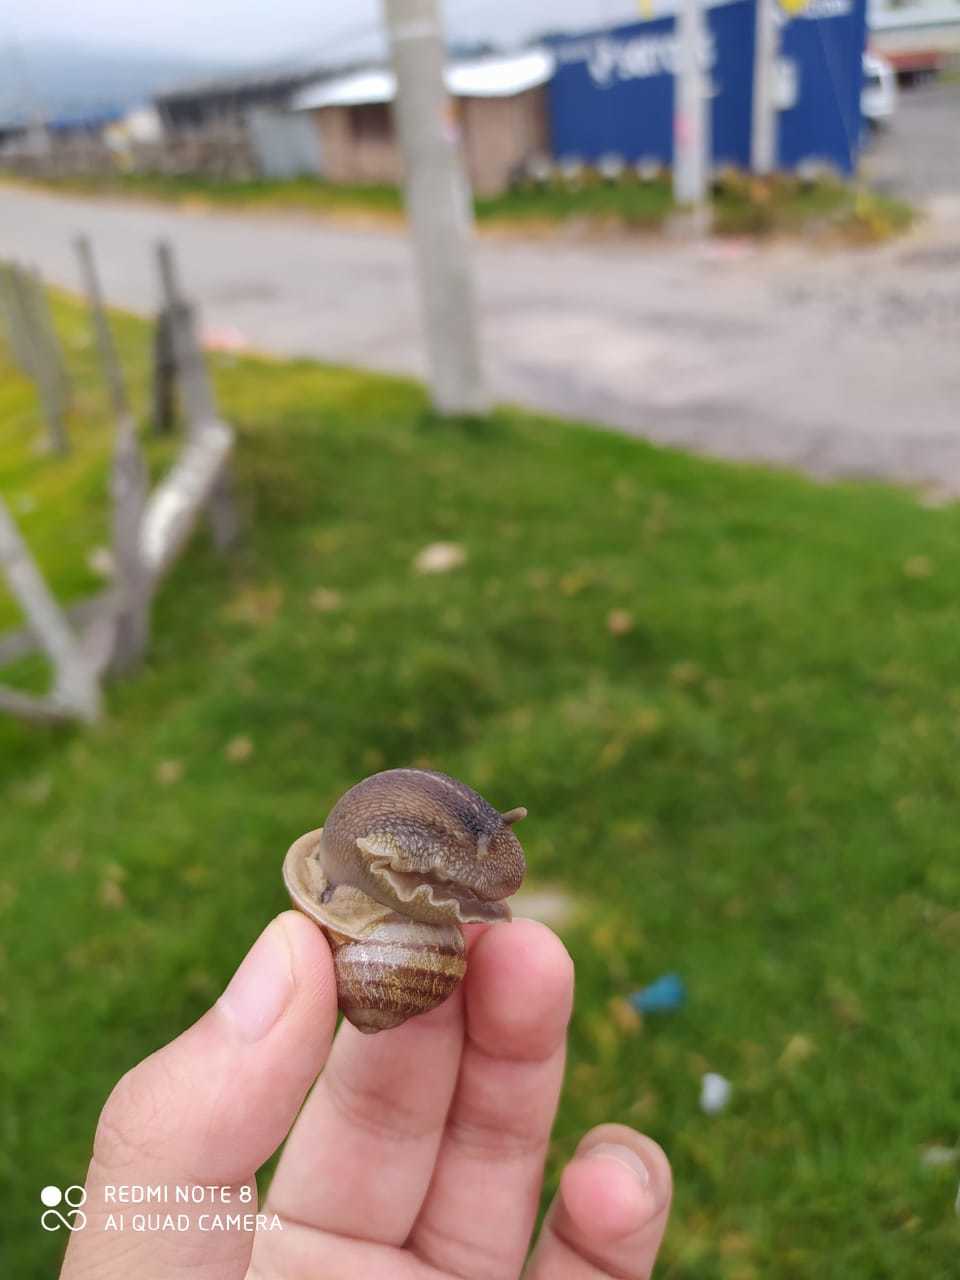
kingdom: Animalia
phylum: Mollusca
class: Gastropoda
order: Stylommatophora
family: Helicidae
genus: Cornu
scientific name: Cornu aspersum
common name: Brown garden snail
